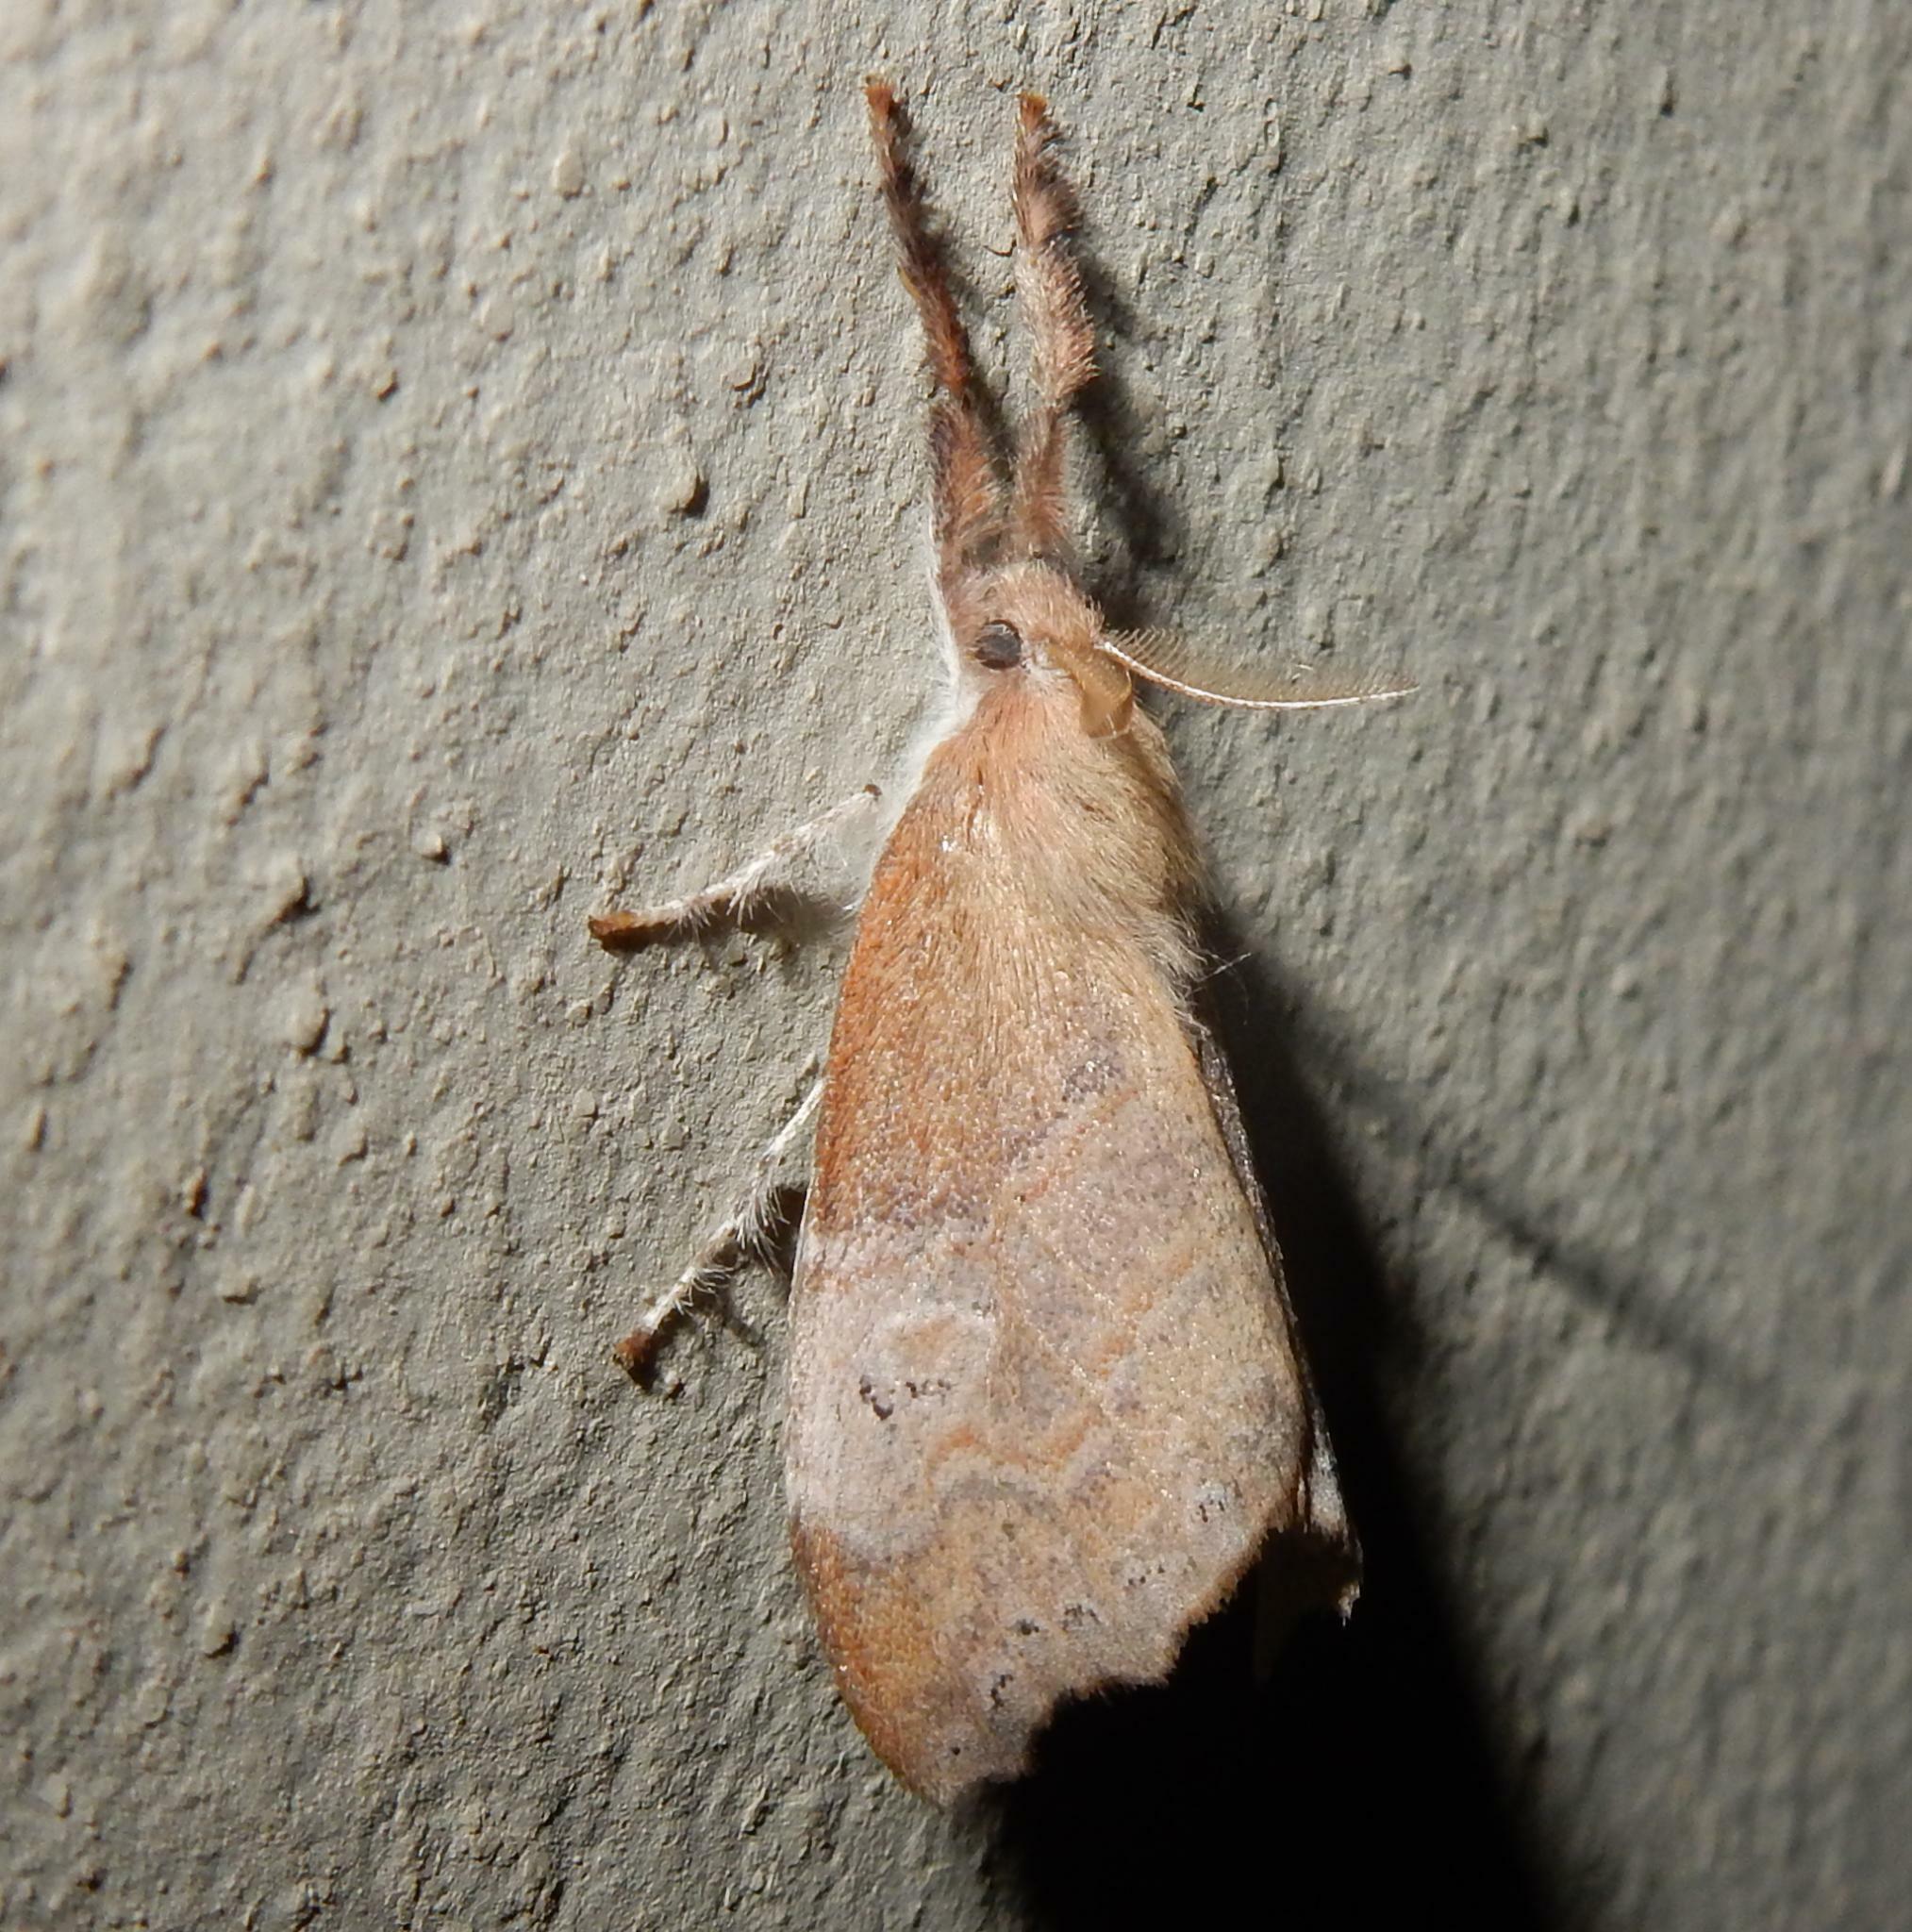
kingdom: Animalia
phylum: Arthropoda
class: Insecta
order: Lepidoptera
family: Erebidae
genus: Hemerophanes
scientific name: Hemerophanes libyra
